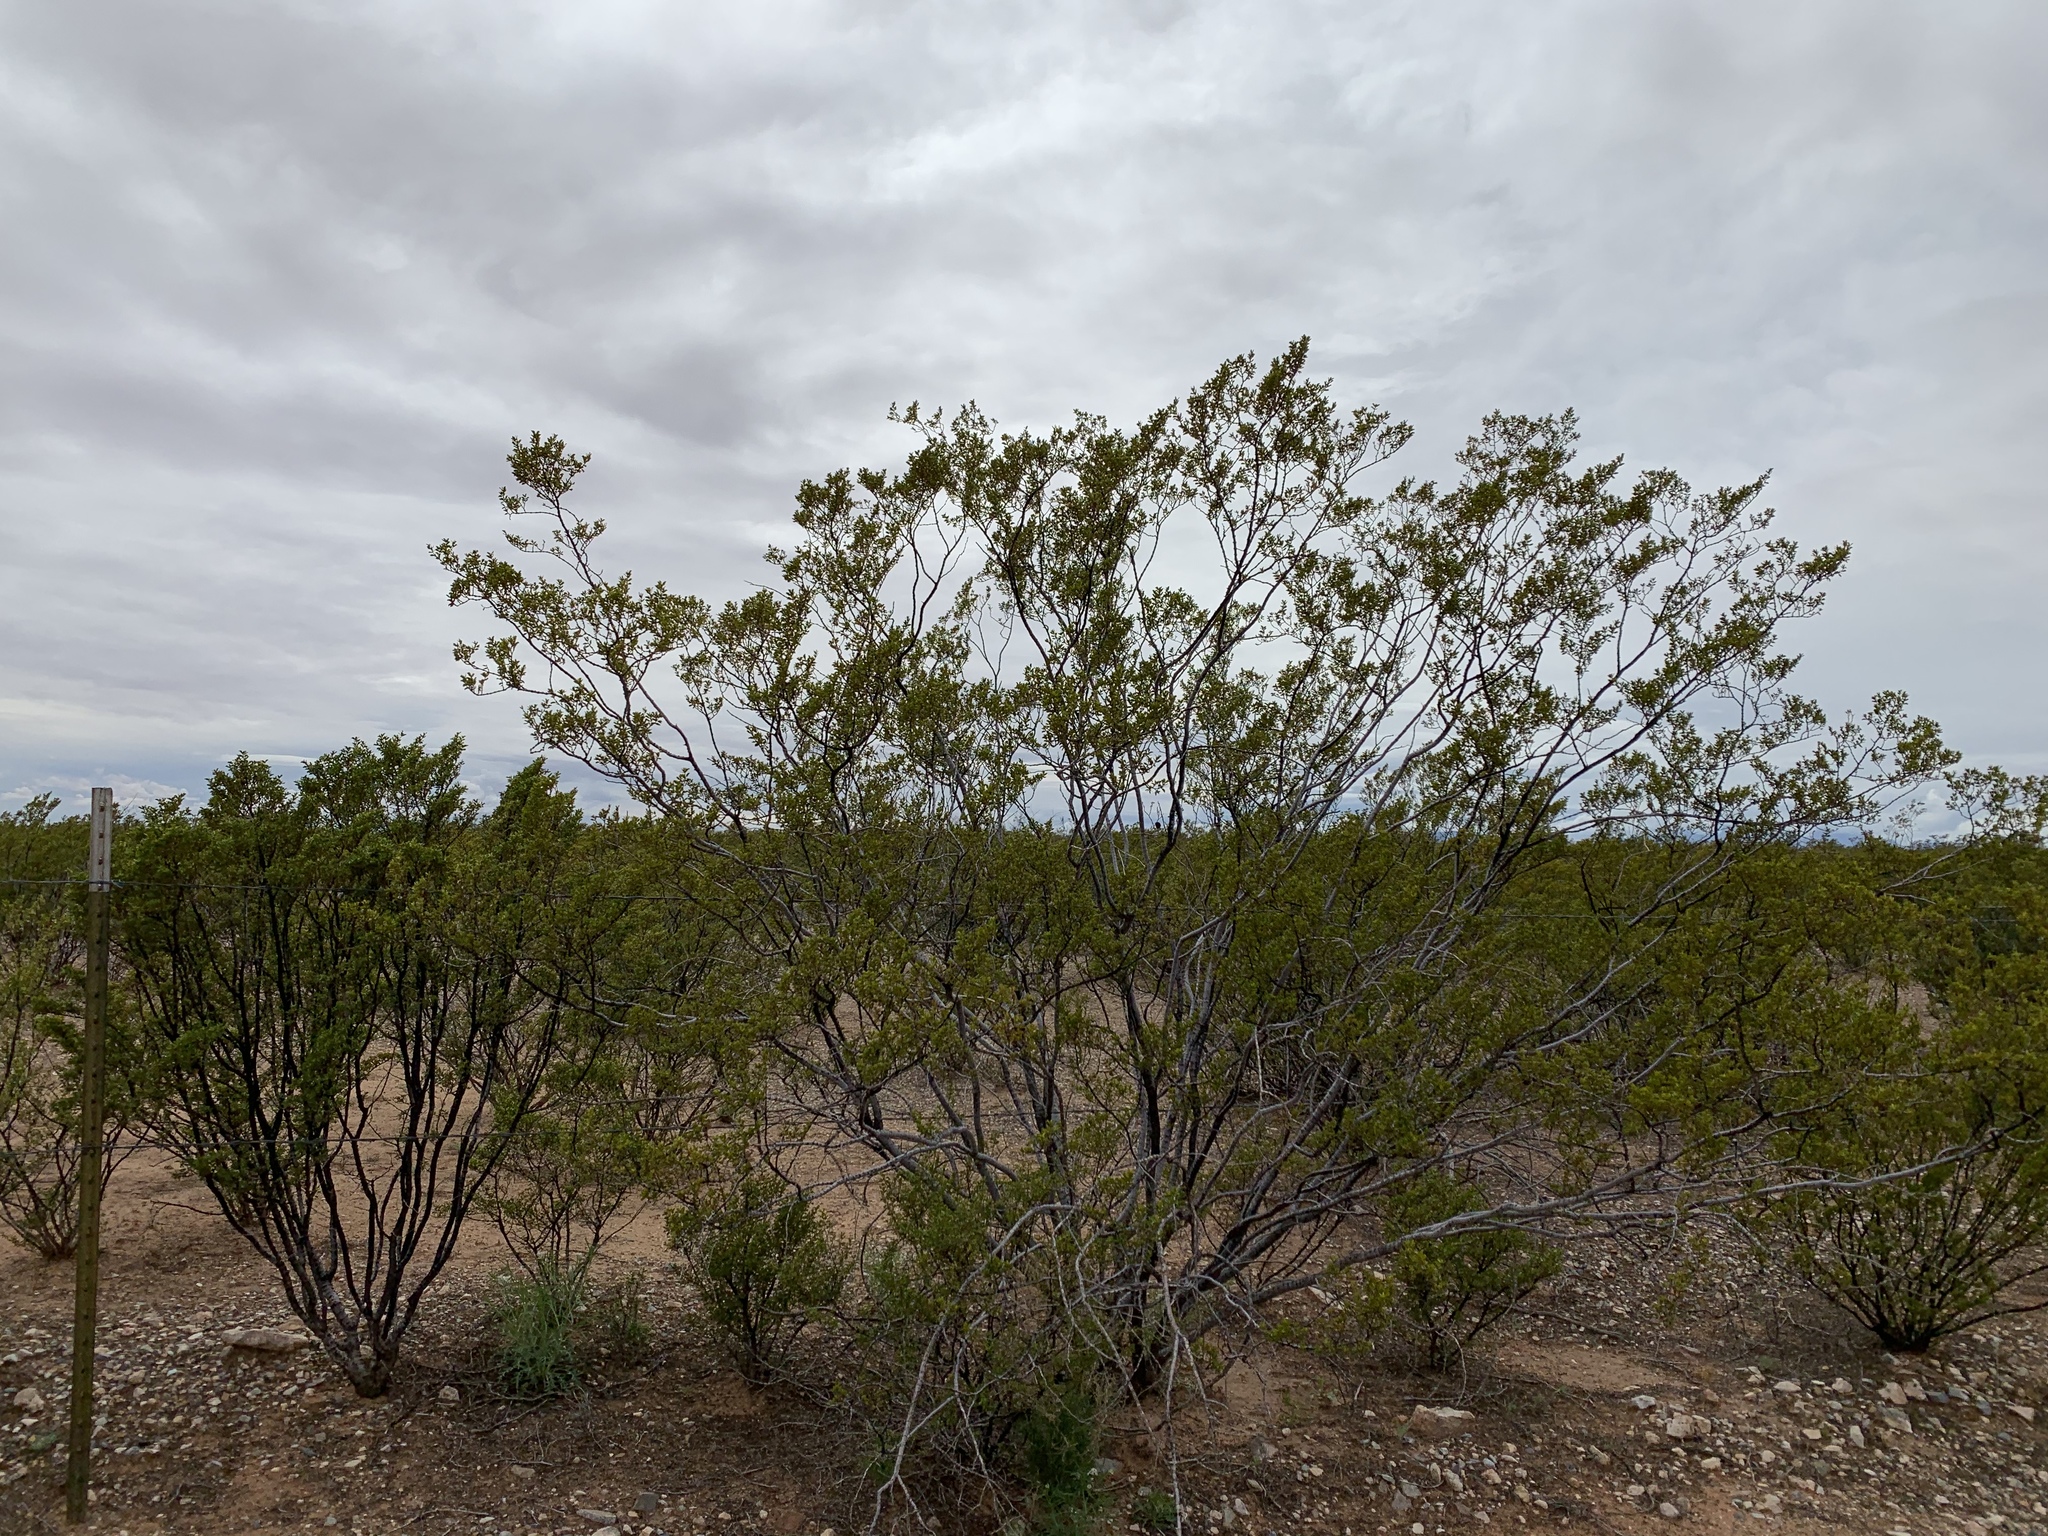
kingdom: Plantae
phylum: Tracheophyta
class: Magnoliopsida
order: Zygophyllales
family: Zygophyllaceae
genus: Larrea
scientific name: Larrea tridentata
